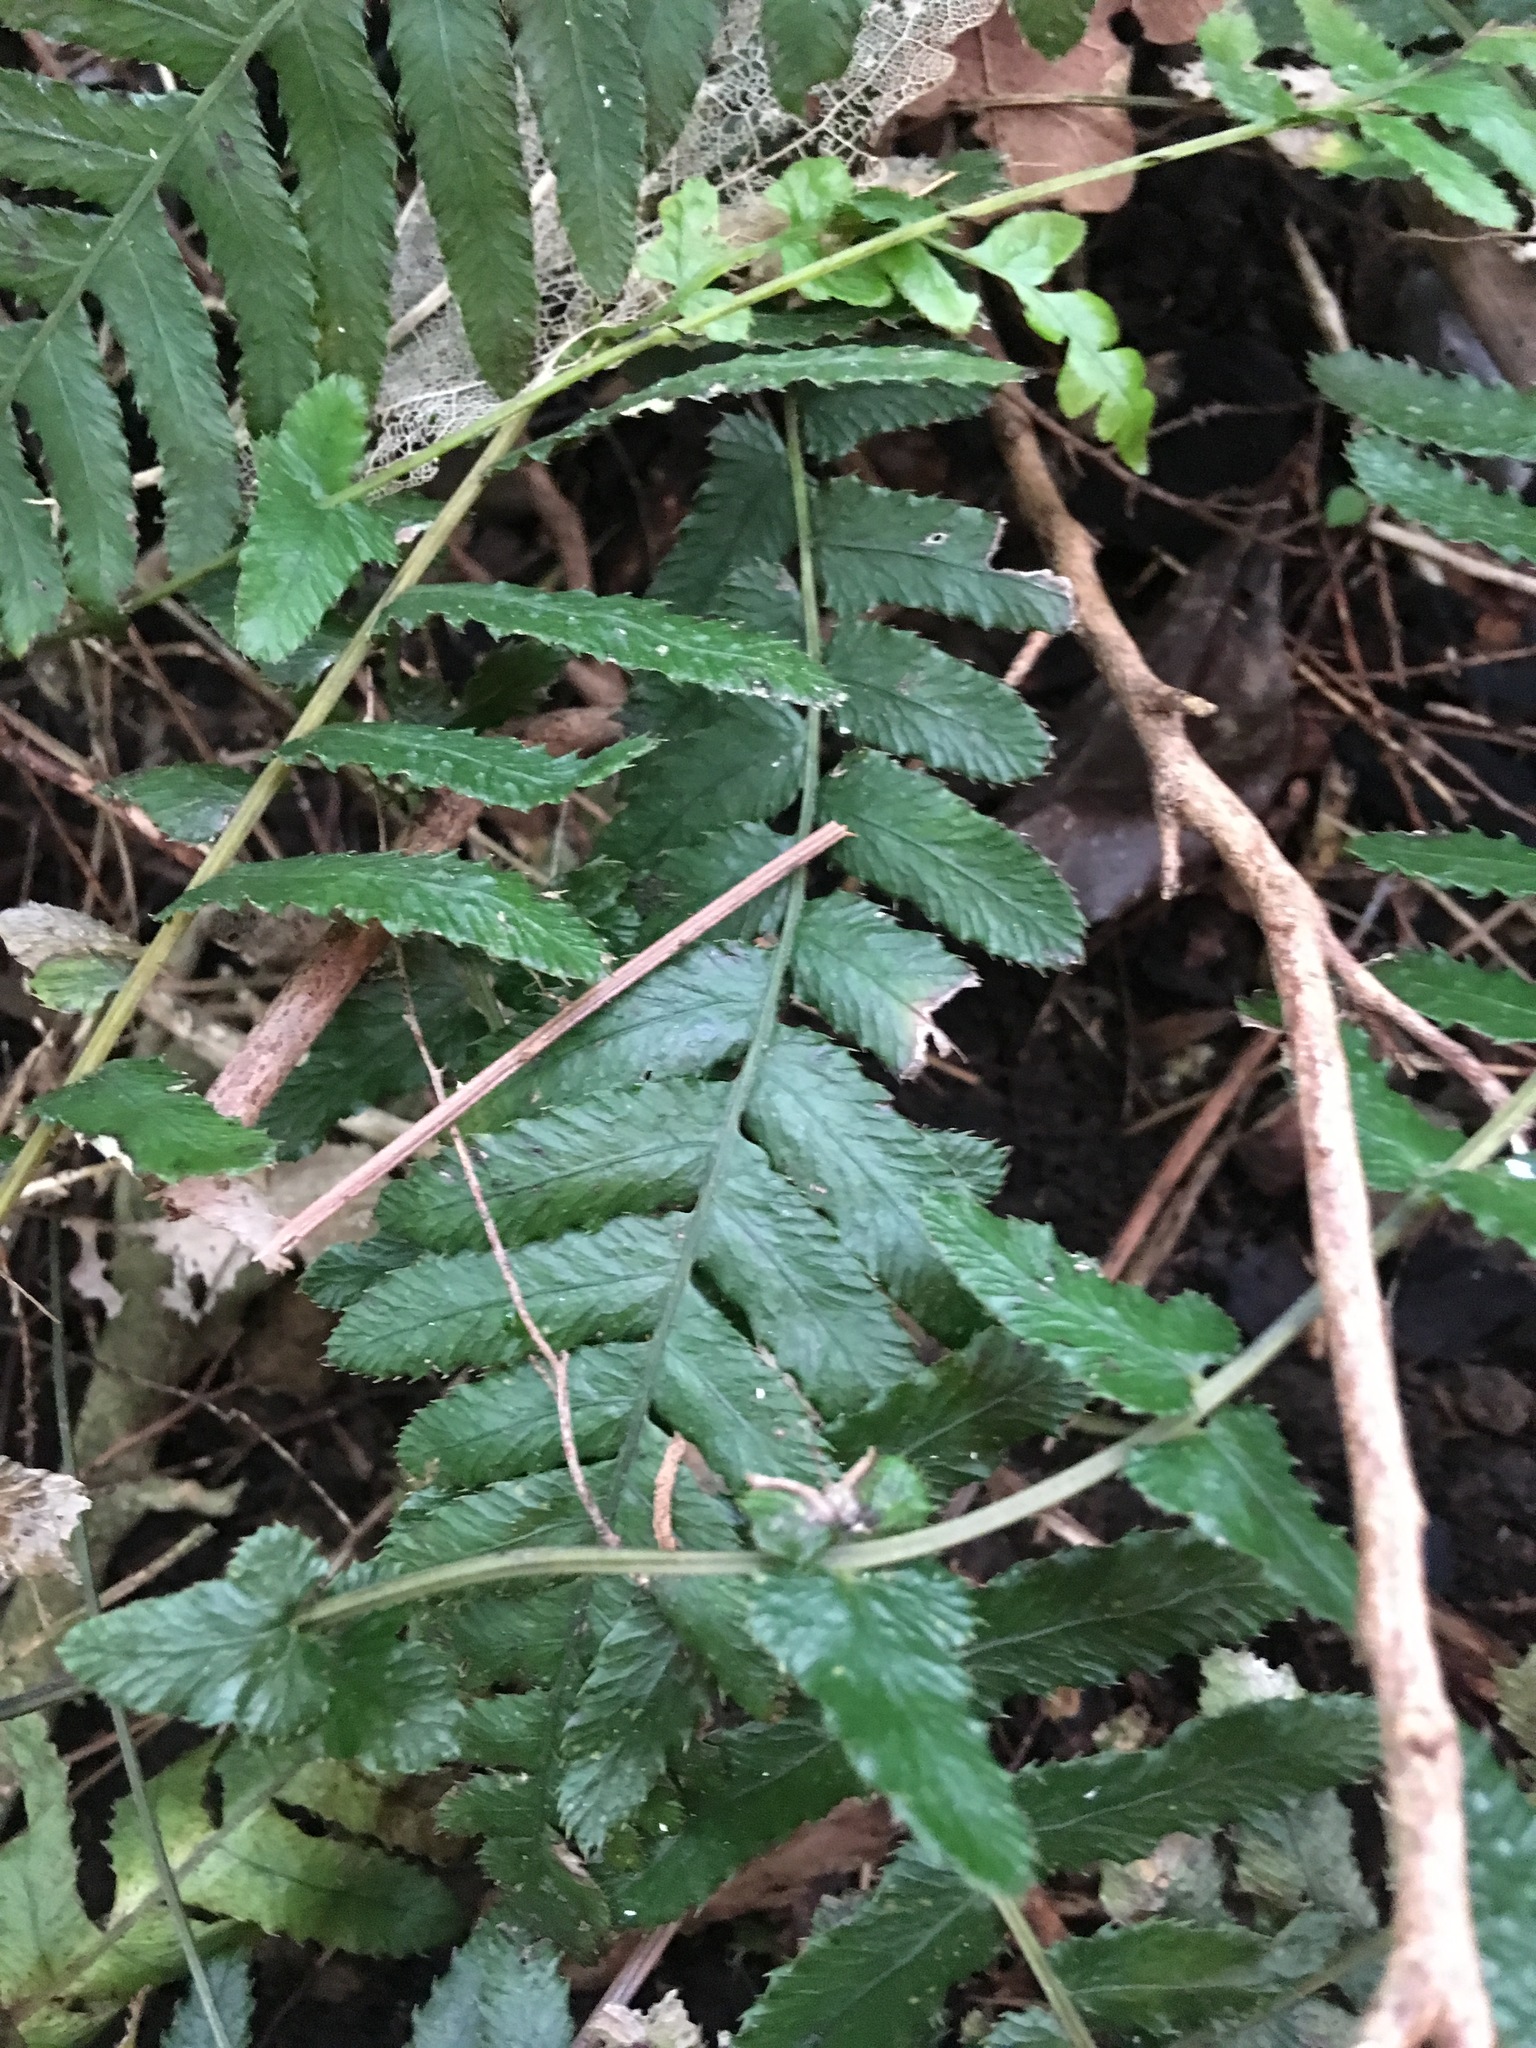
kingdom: Plantae
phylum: Tracheophyta
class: Polypodiopsida
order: Polypodiales
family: Blechnaceae
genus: Doodia
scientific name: Doodia australis
